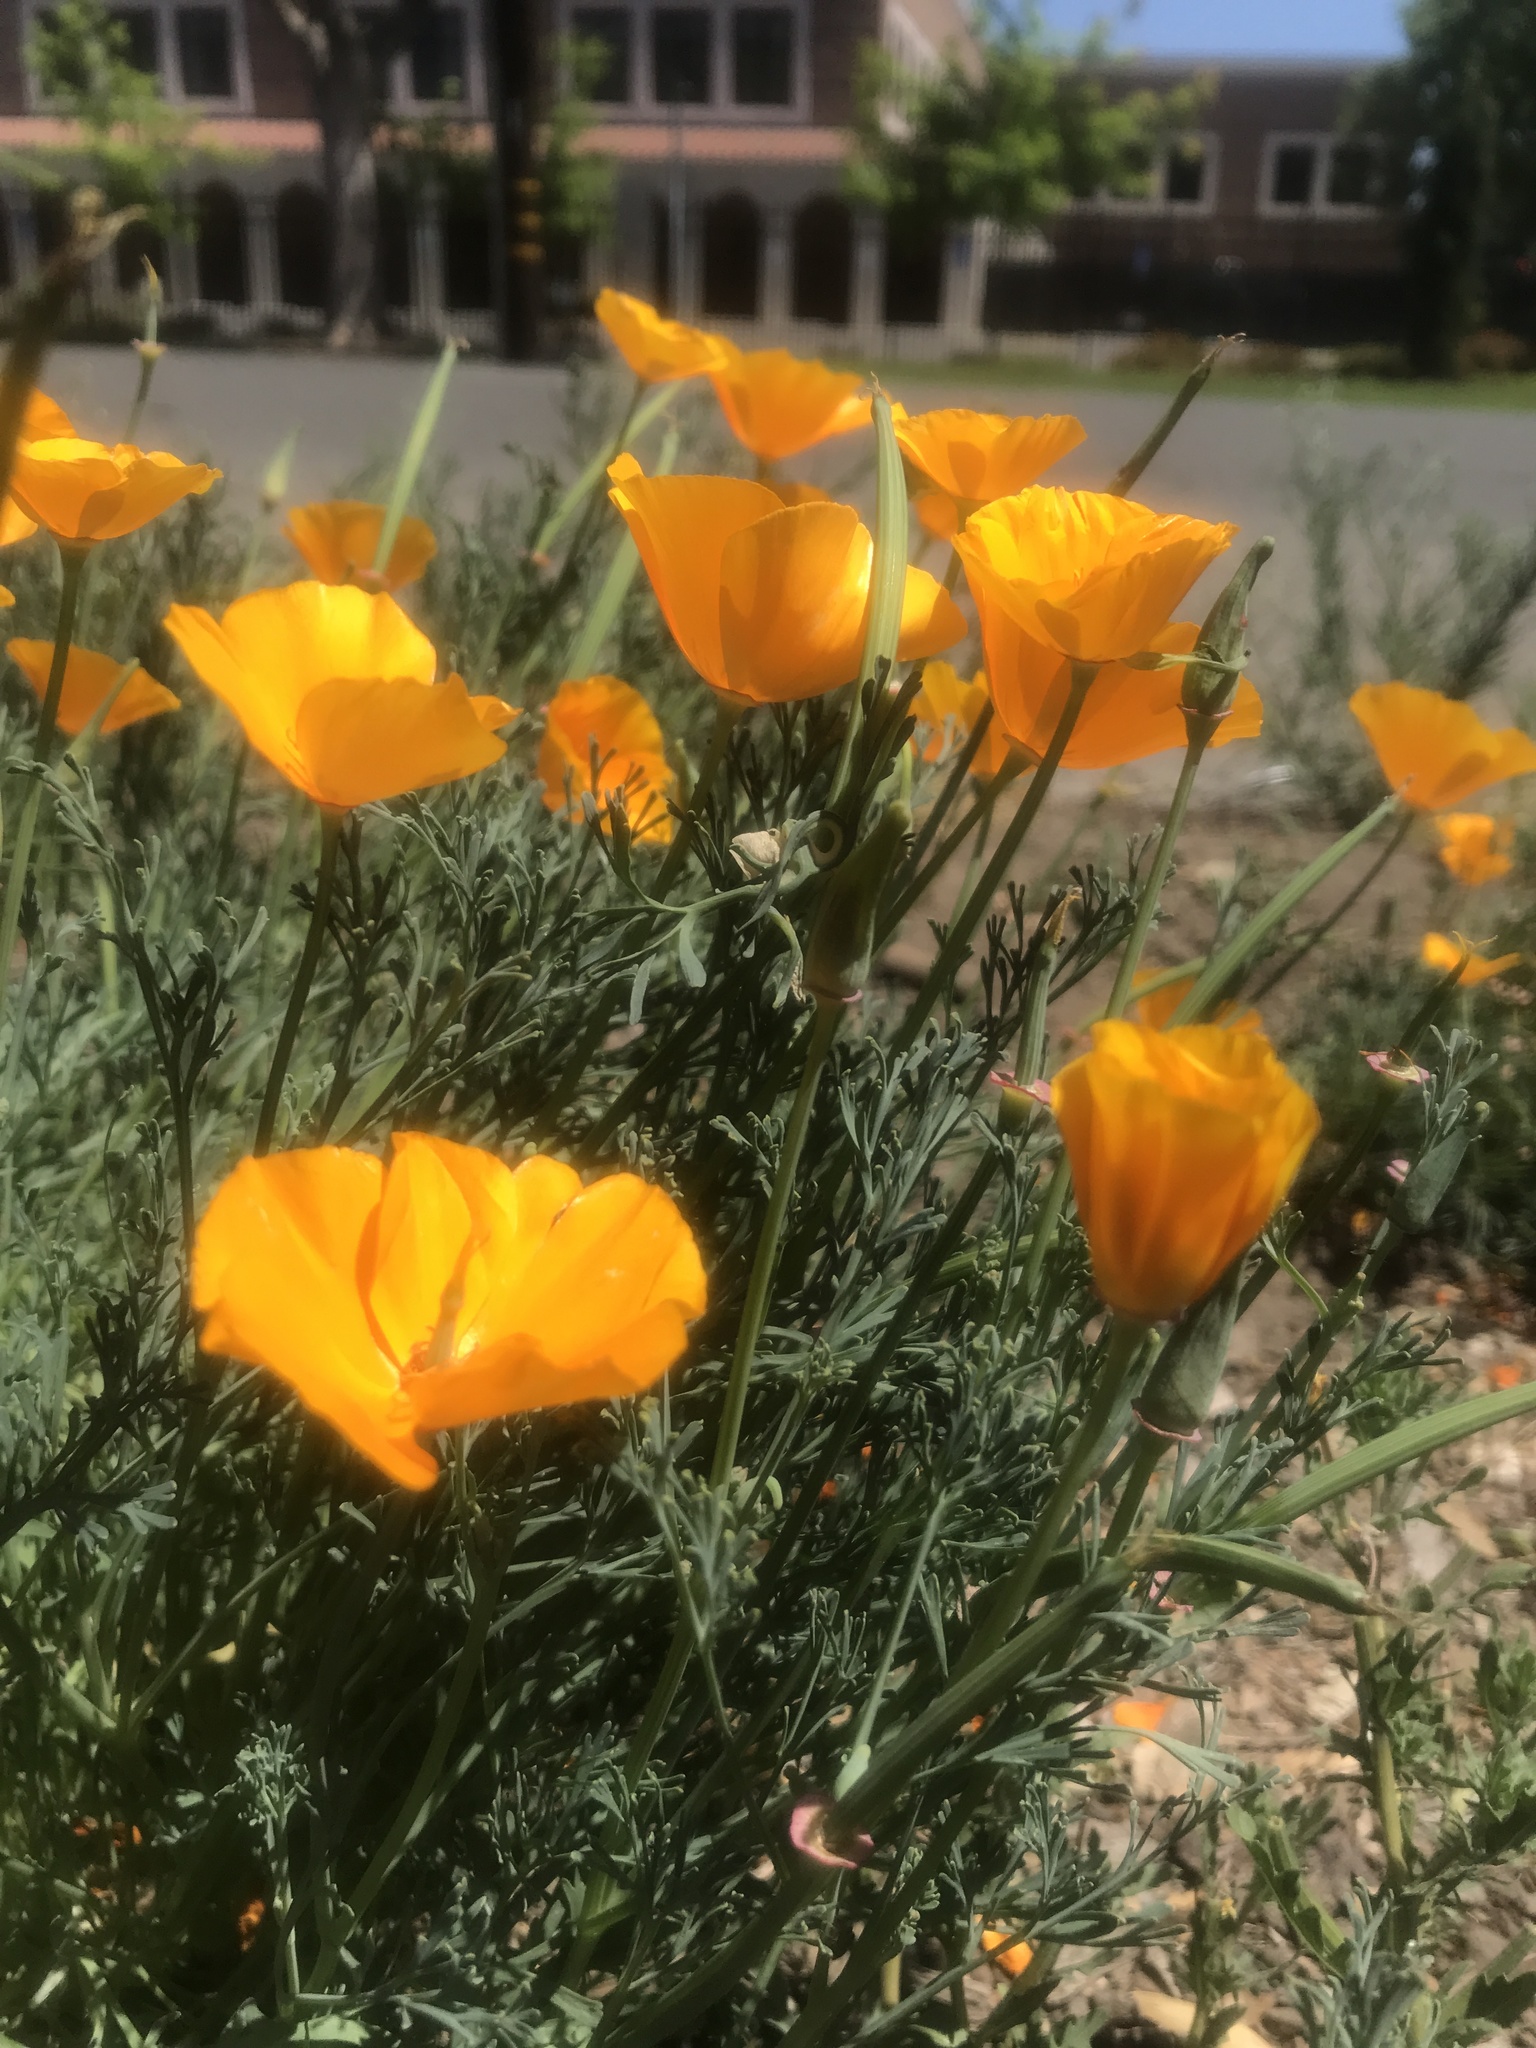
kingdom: Plantae
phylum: Tracheophyta
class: Magnoliopsida
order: Ranunculales
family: Papaveraceae
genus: Eschscholzia
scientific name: Eschscholzia californica
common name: California poppy
